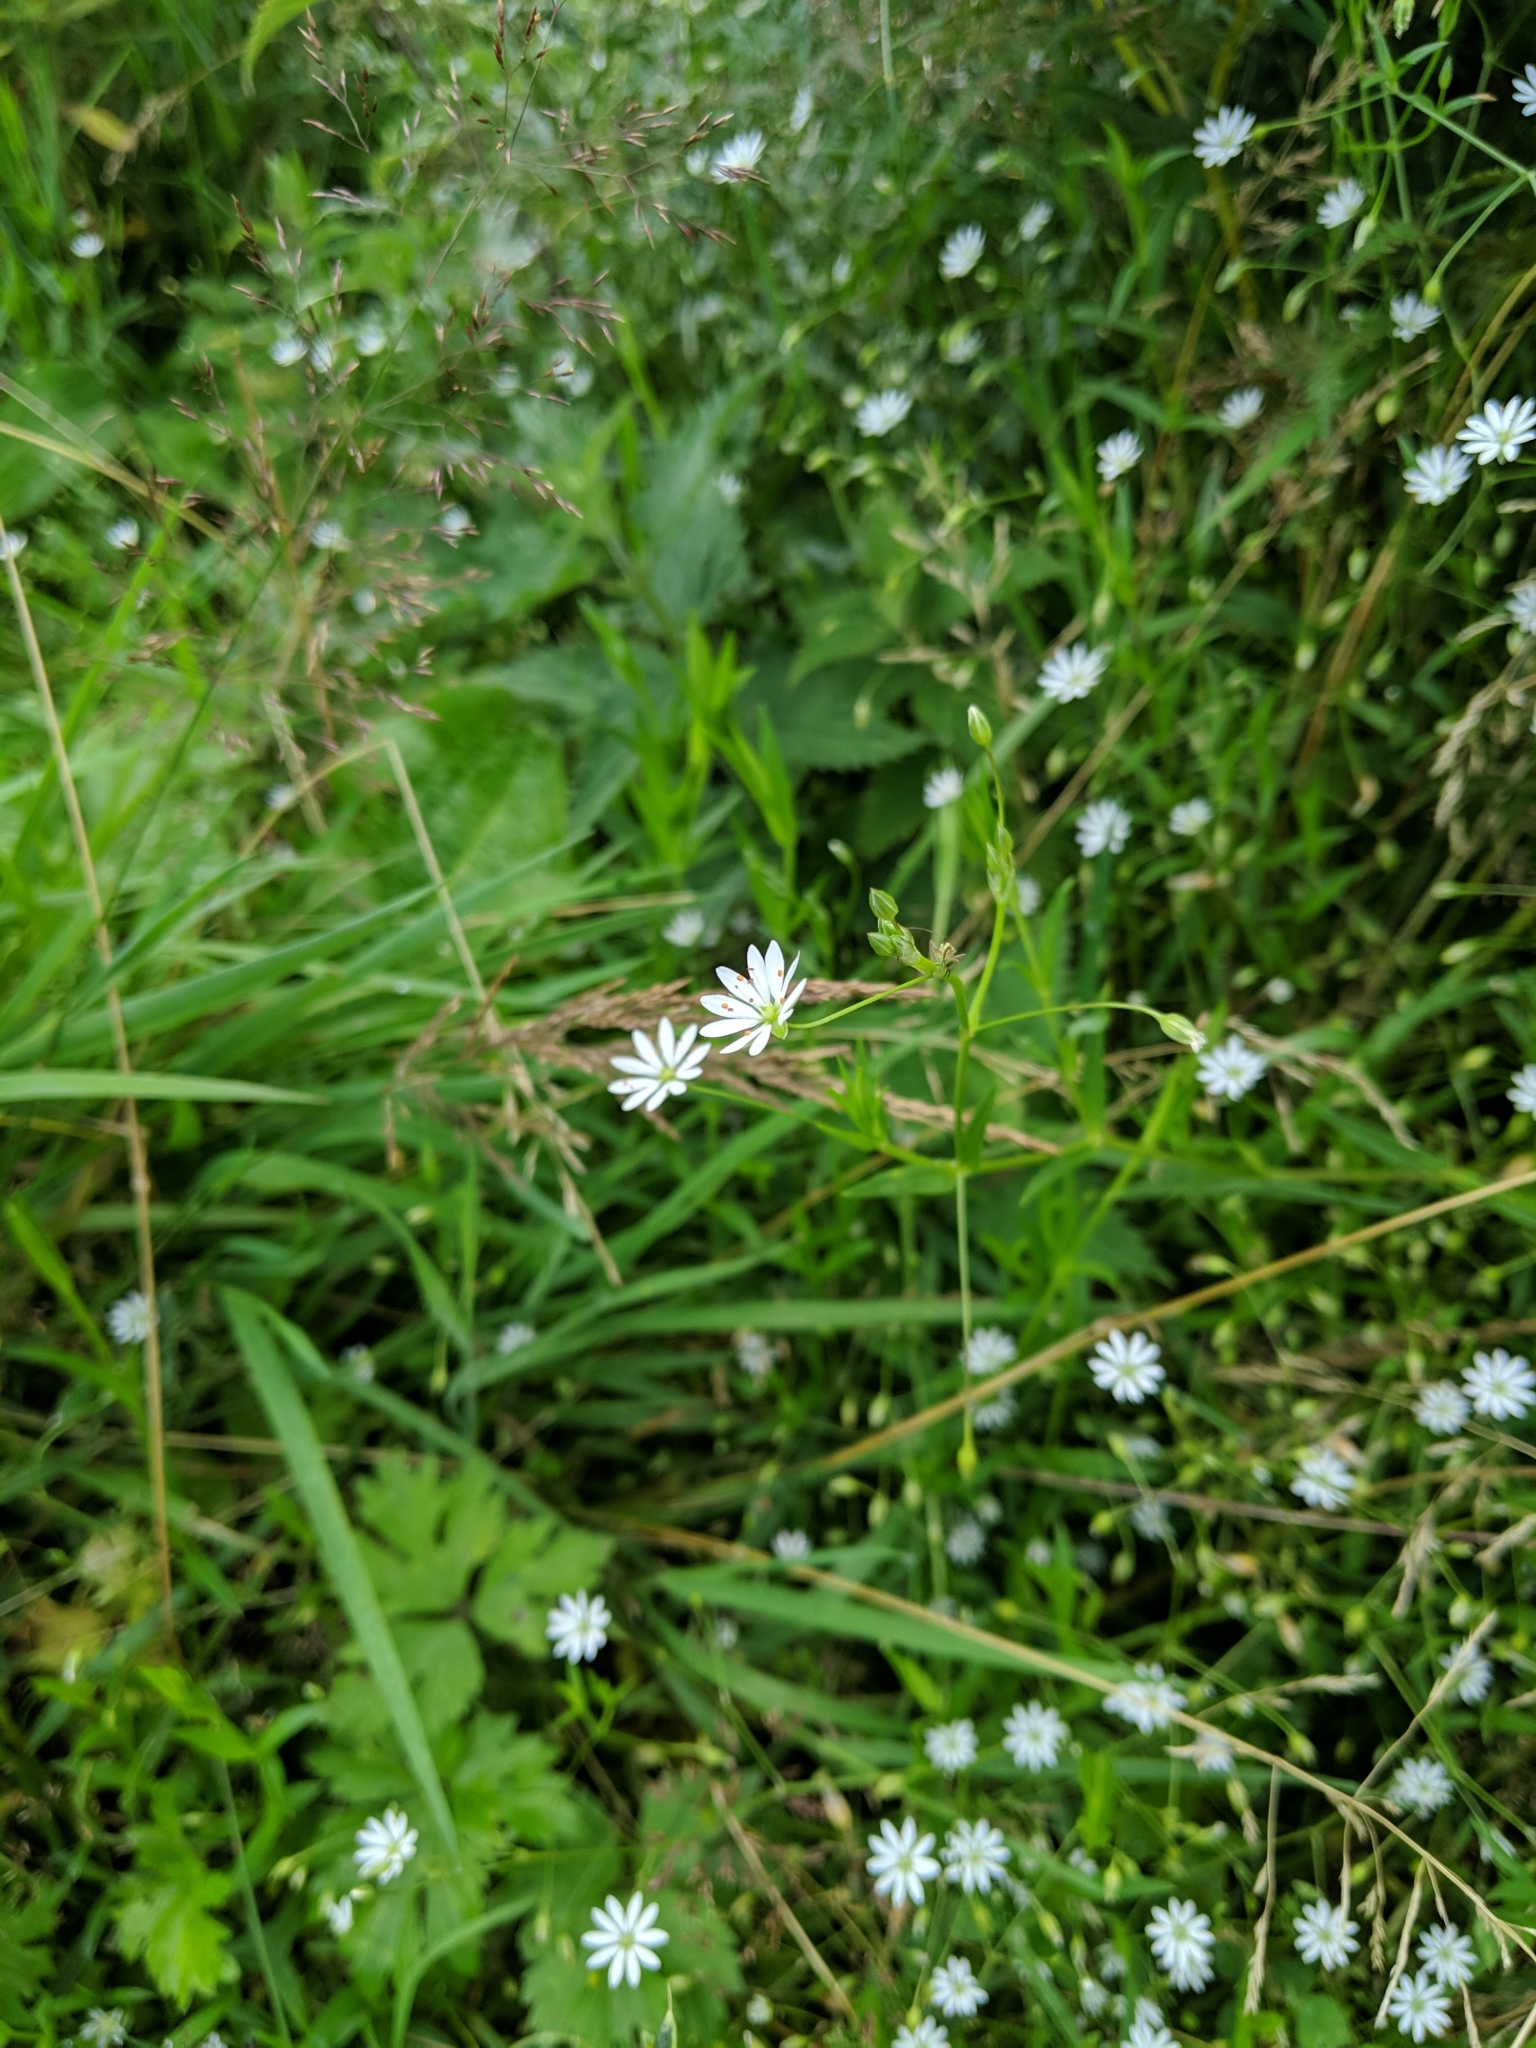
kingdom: Plantae
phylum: Tracheophyta
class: Magnoliopsida
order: Caryophyllales
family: Caryophyllaceae
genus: Stellaria
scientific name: Stellaria graminea
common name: Grass-like starwort
